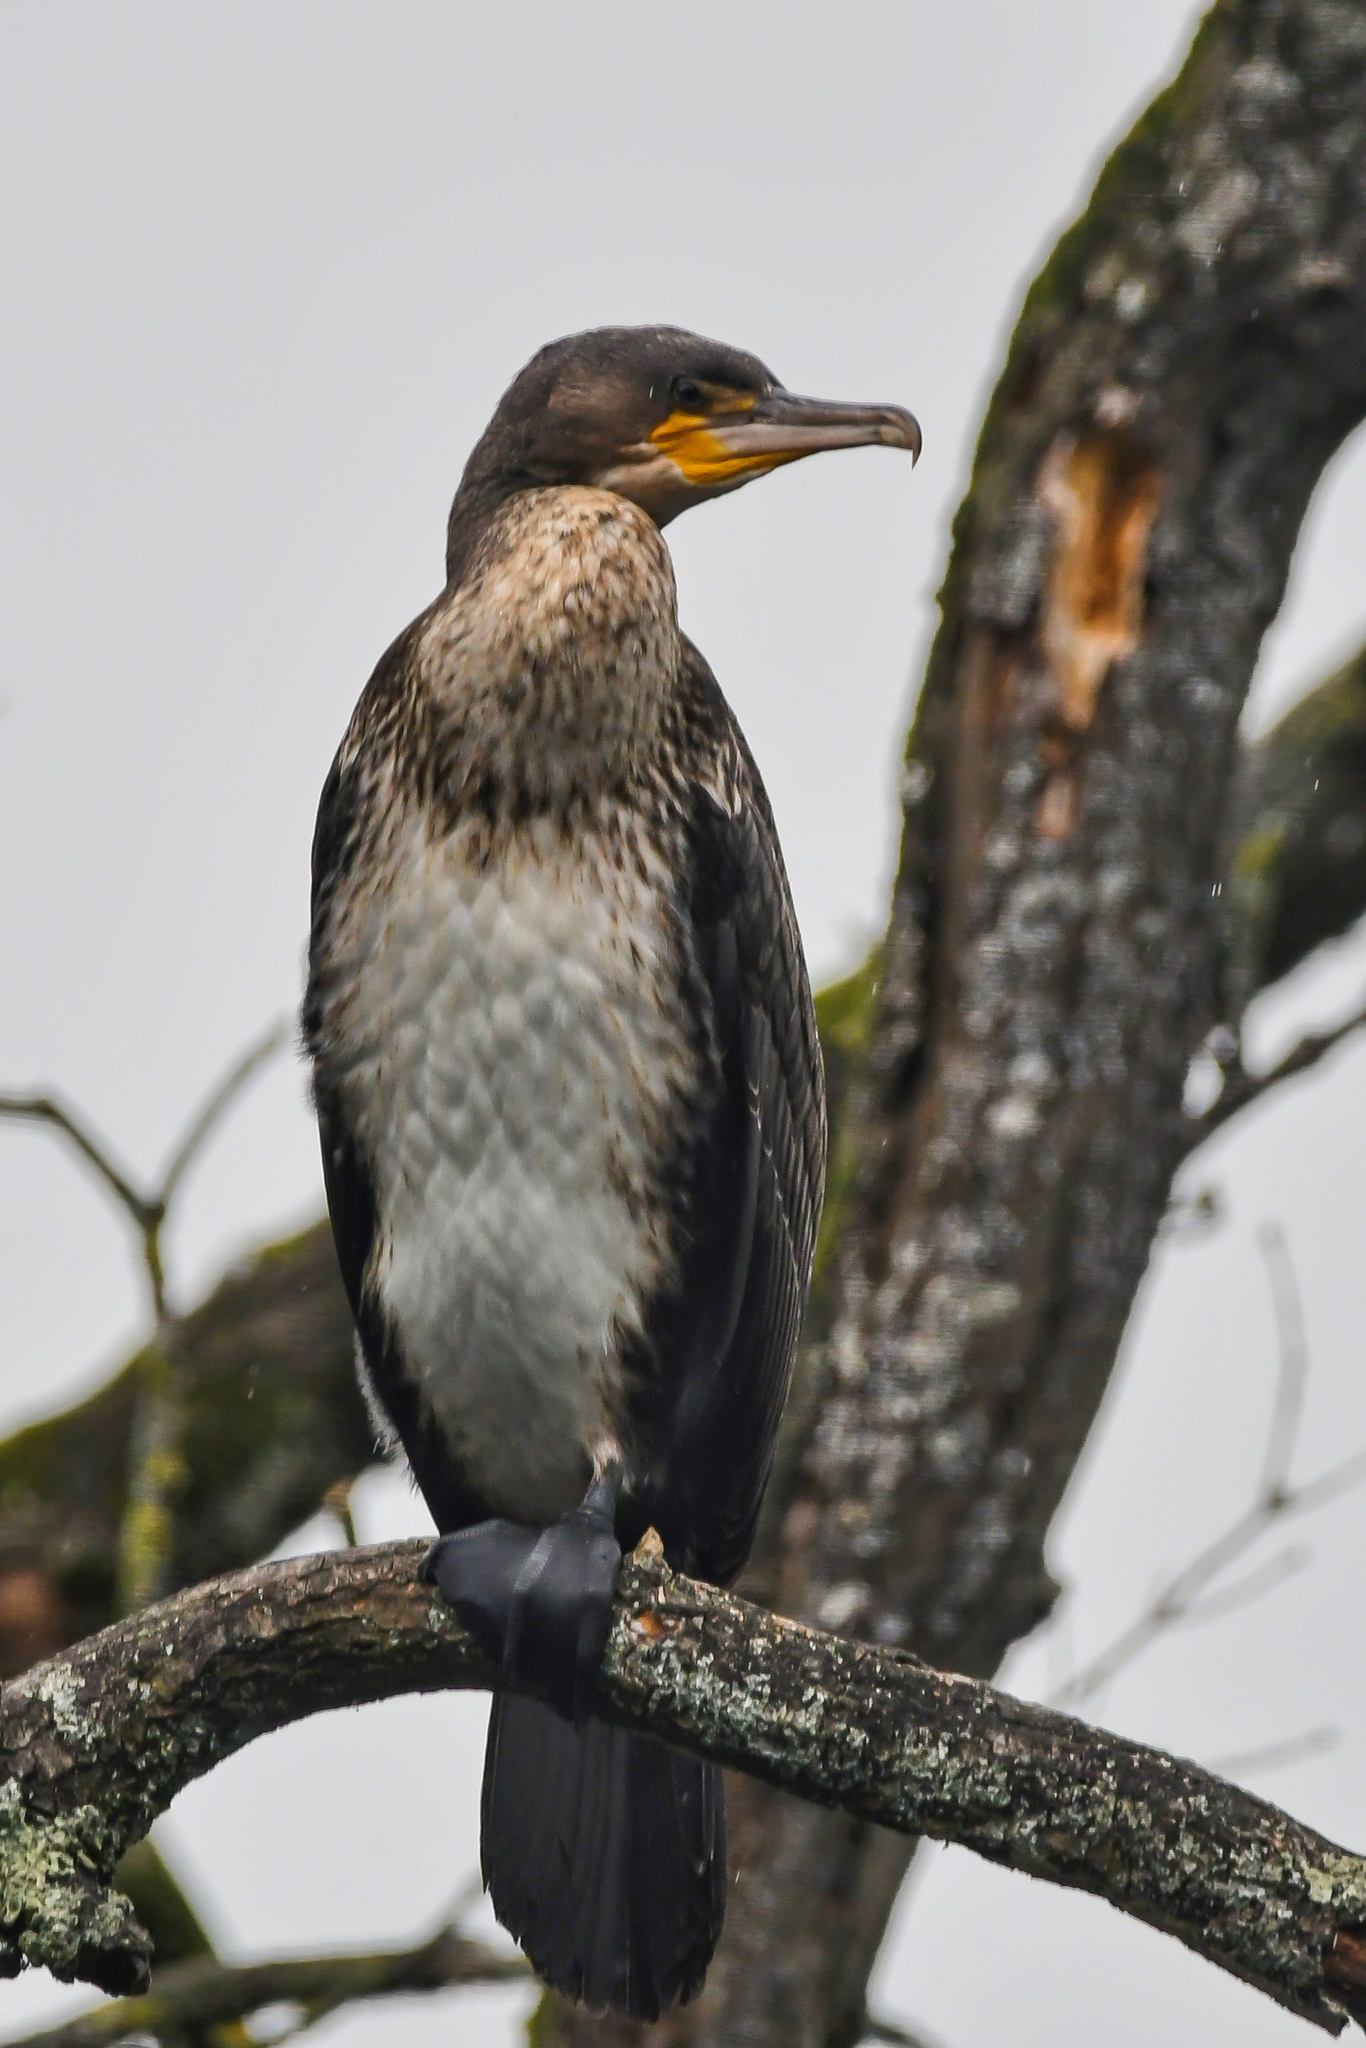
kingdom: Animalia
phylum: Chordata
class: Aves
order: Suliformes
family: Phalacrocoracidae
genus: Phalacrocorax
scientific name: Phalacrocorax carbo
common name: Great cormorant
